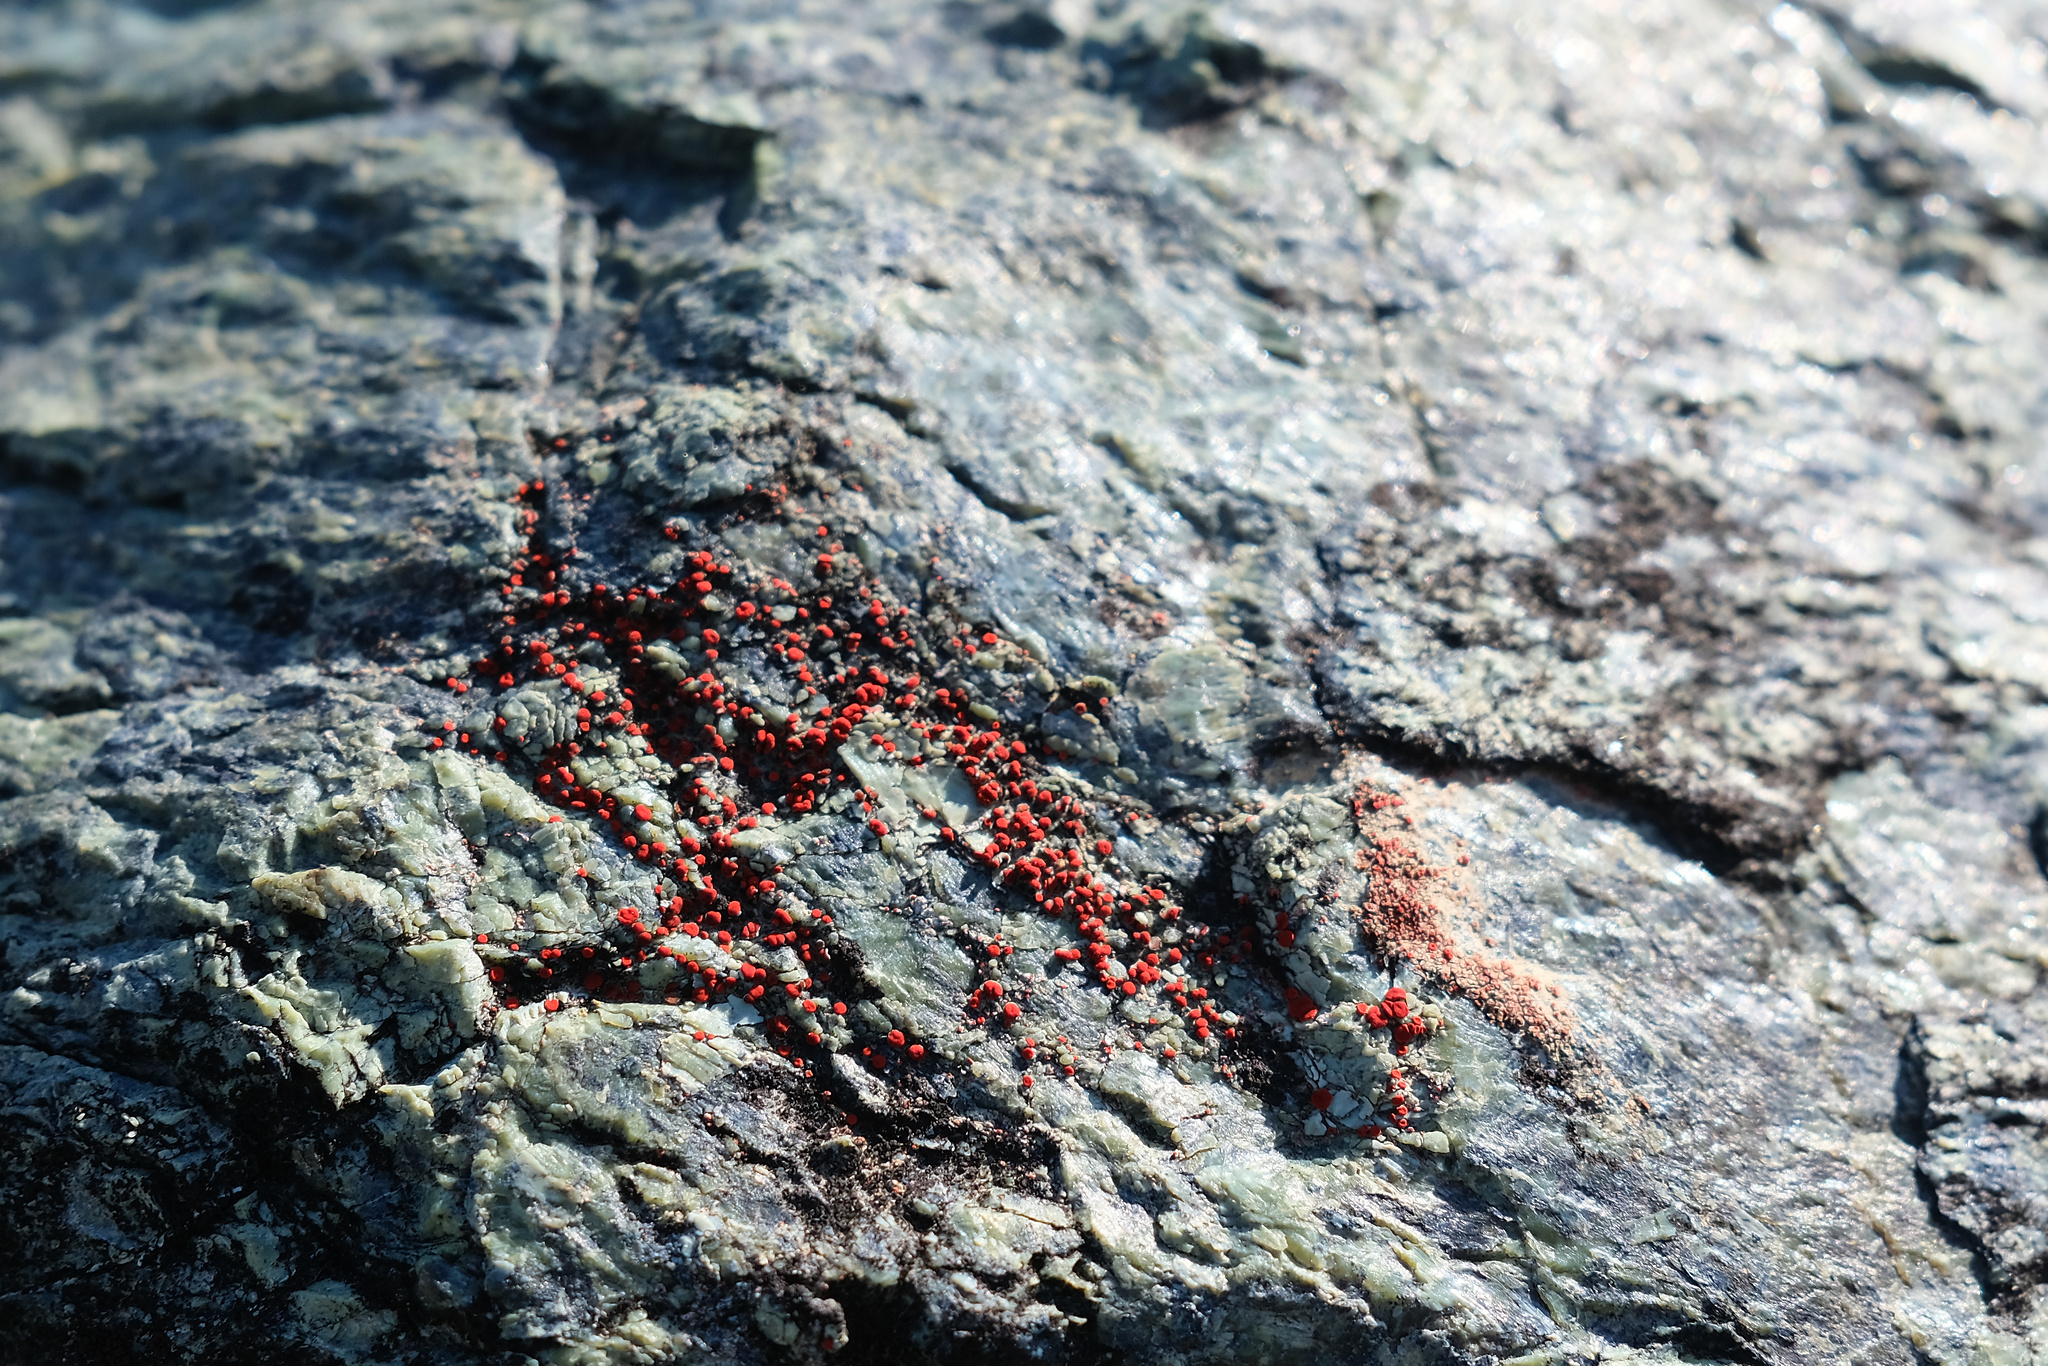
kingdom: Fungi
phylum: Ascomycota
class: Lecanoromycetes
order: Teloschistales
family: Teloschistaceae
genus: Tomnashia
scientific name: Tomnashia luteominia
